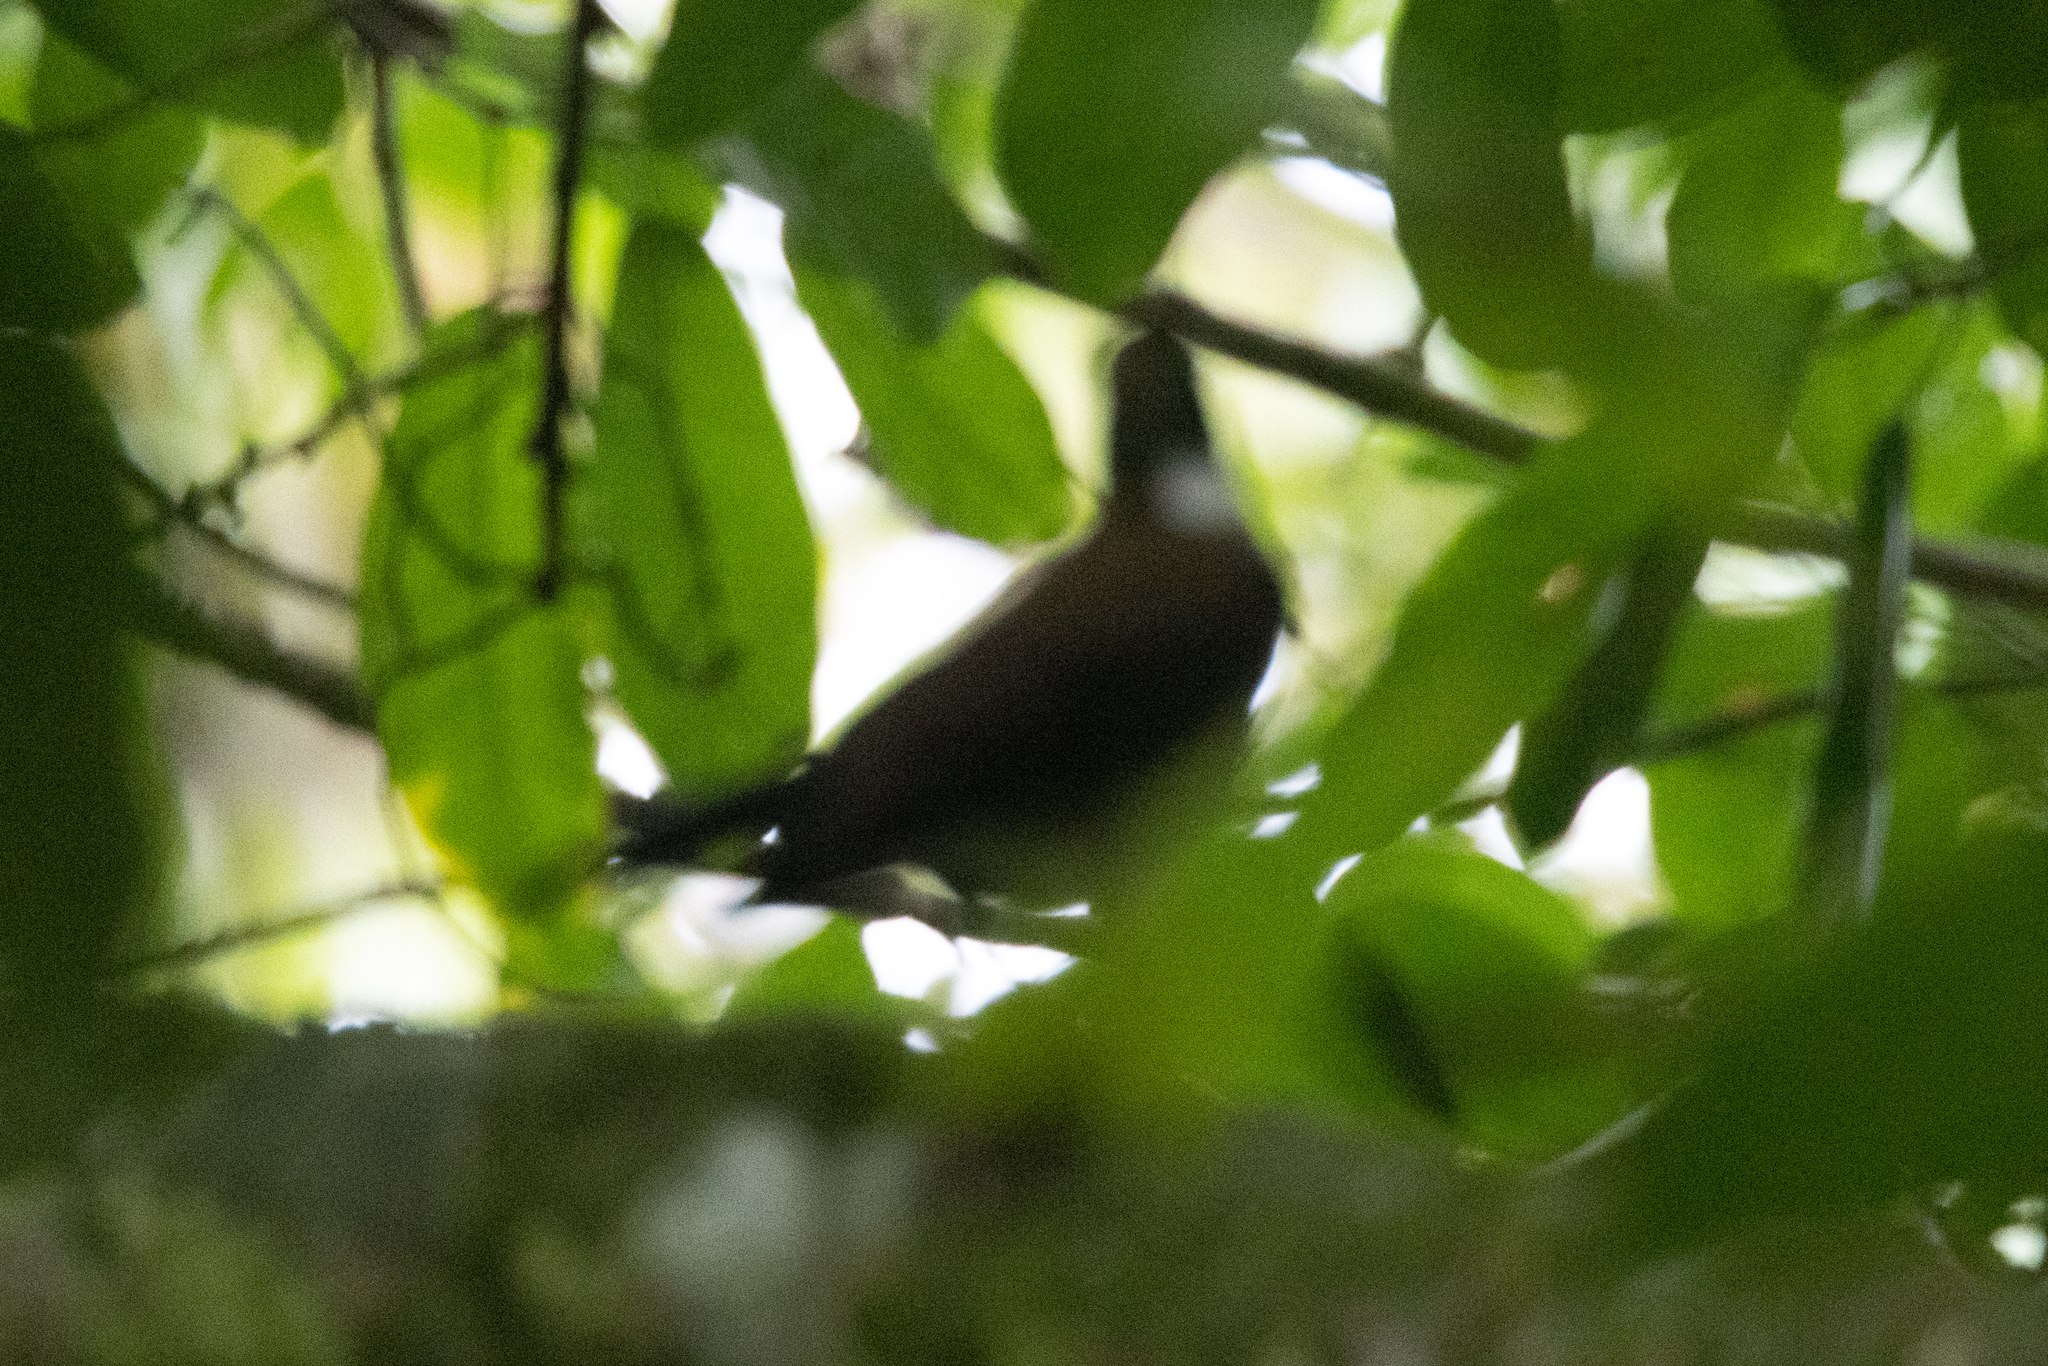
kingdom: Animalia
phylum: Chordata
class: Aves
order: Passeriformes
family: Turdidae
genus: Turdus
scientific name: Turdus assimilis
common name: White-throated thrush
